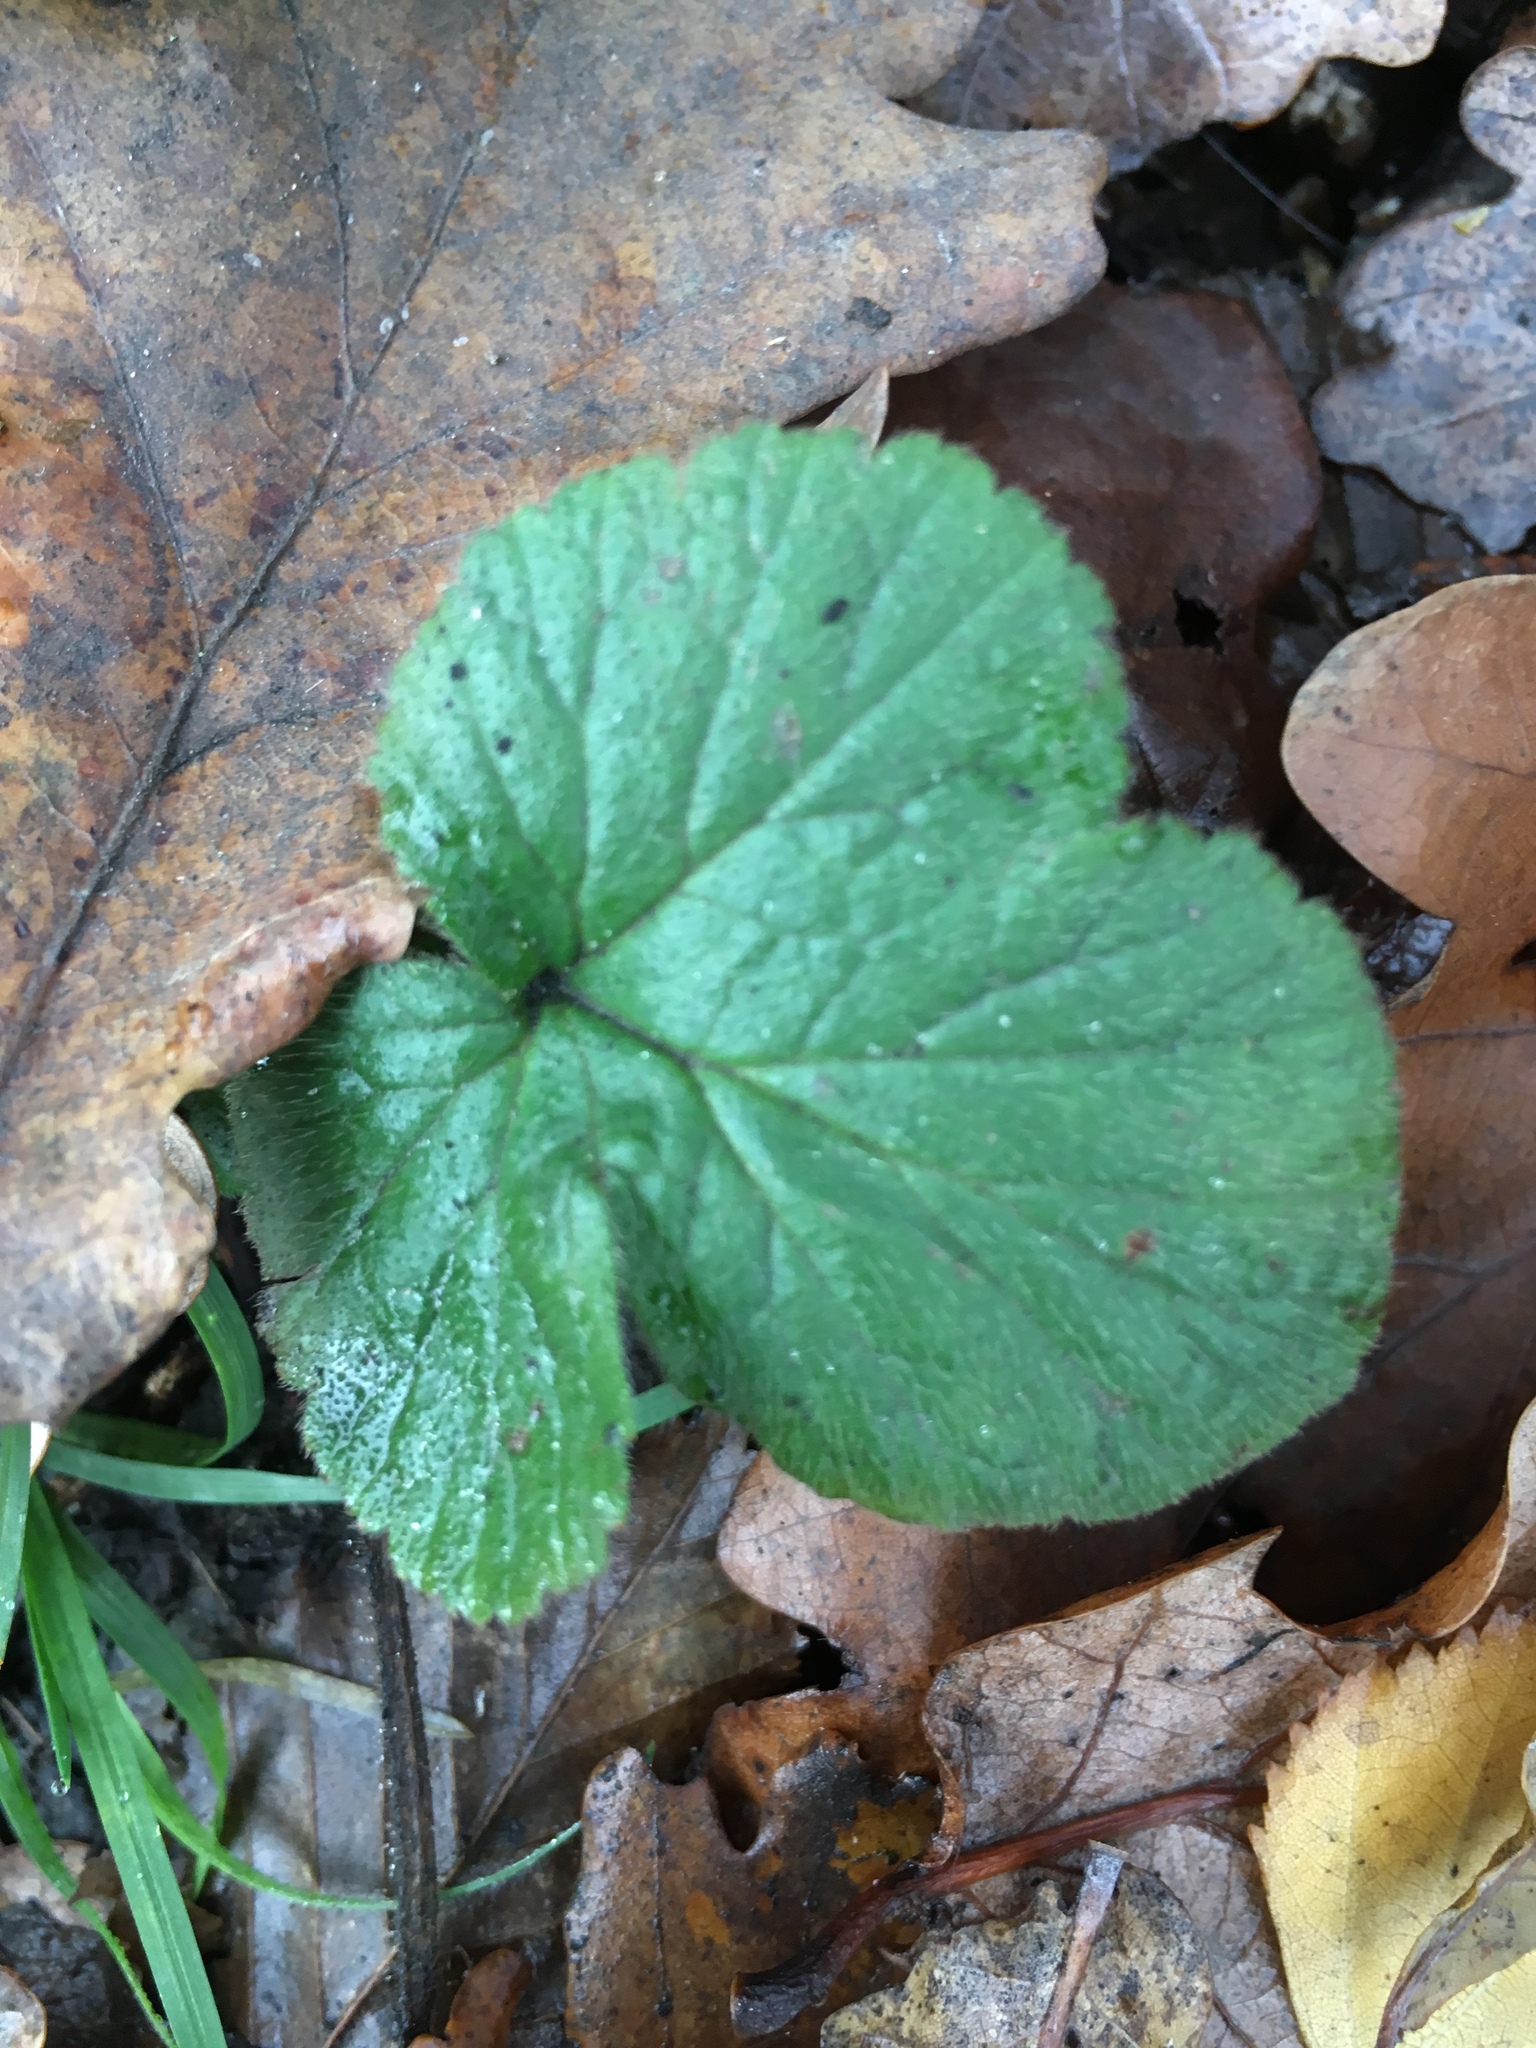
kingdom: Plantae
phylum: Tracheophyta
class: Magnoliopsida
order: Rosales
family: Rosaceae
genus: Geum
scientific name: Geum urbanum
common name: Wood avens
